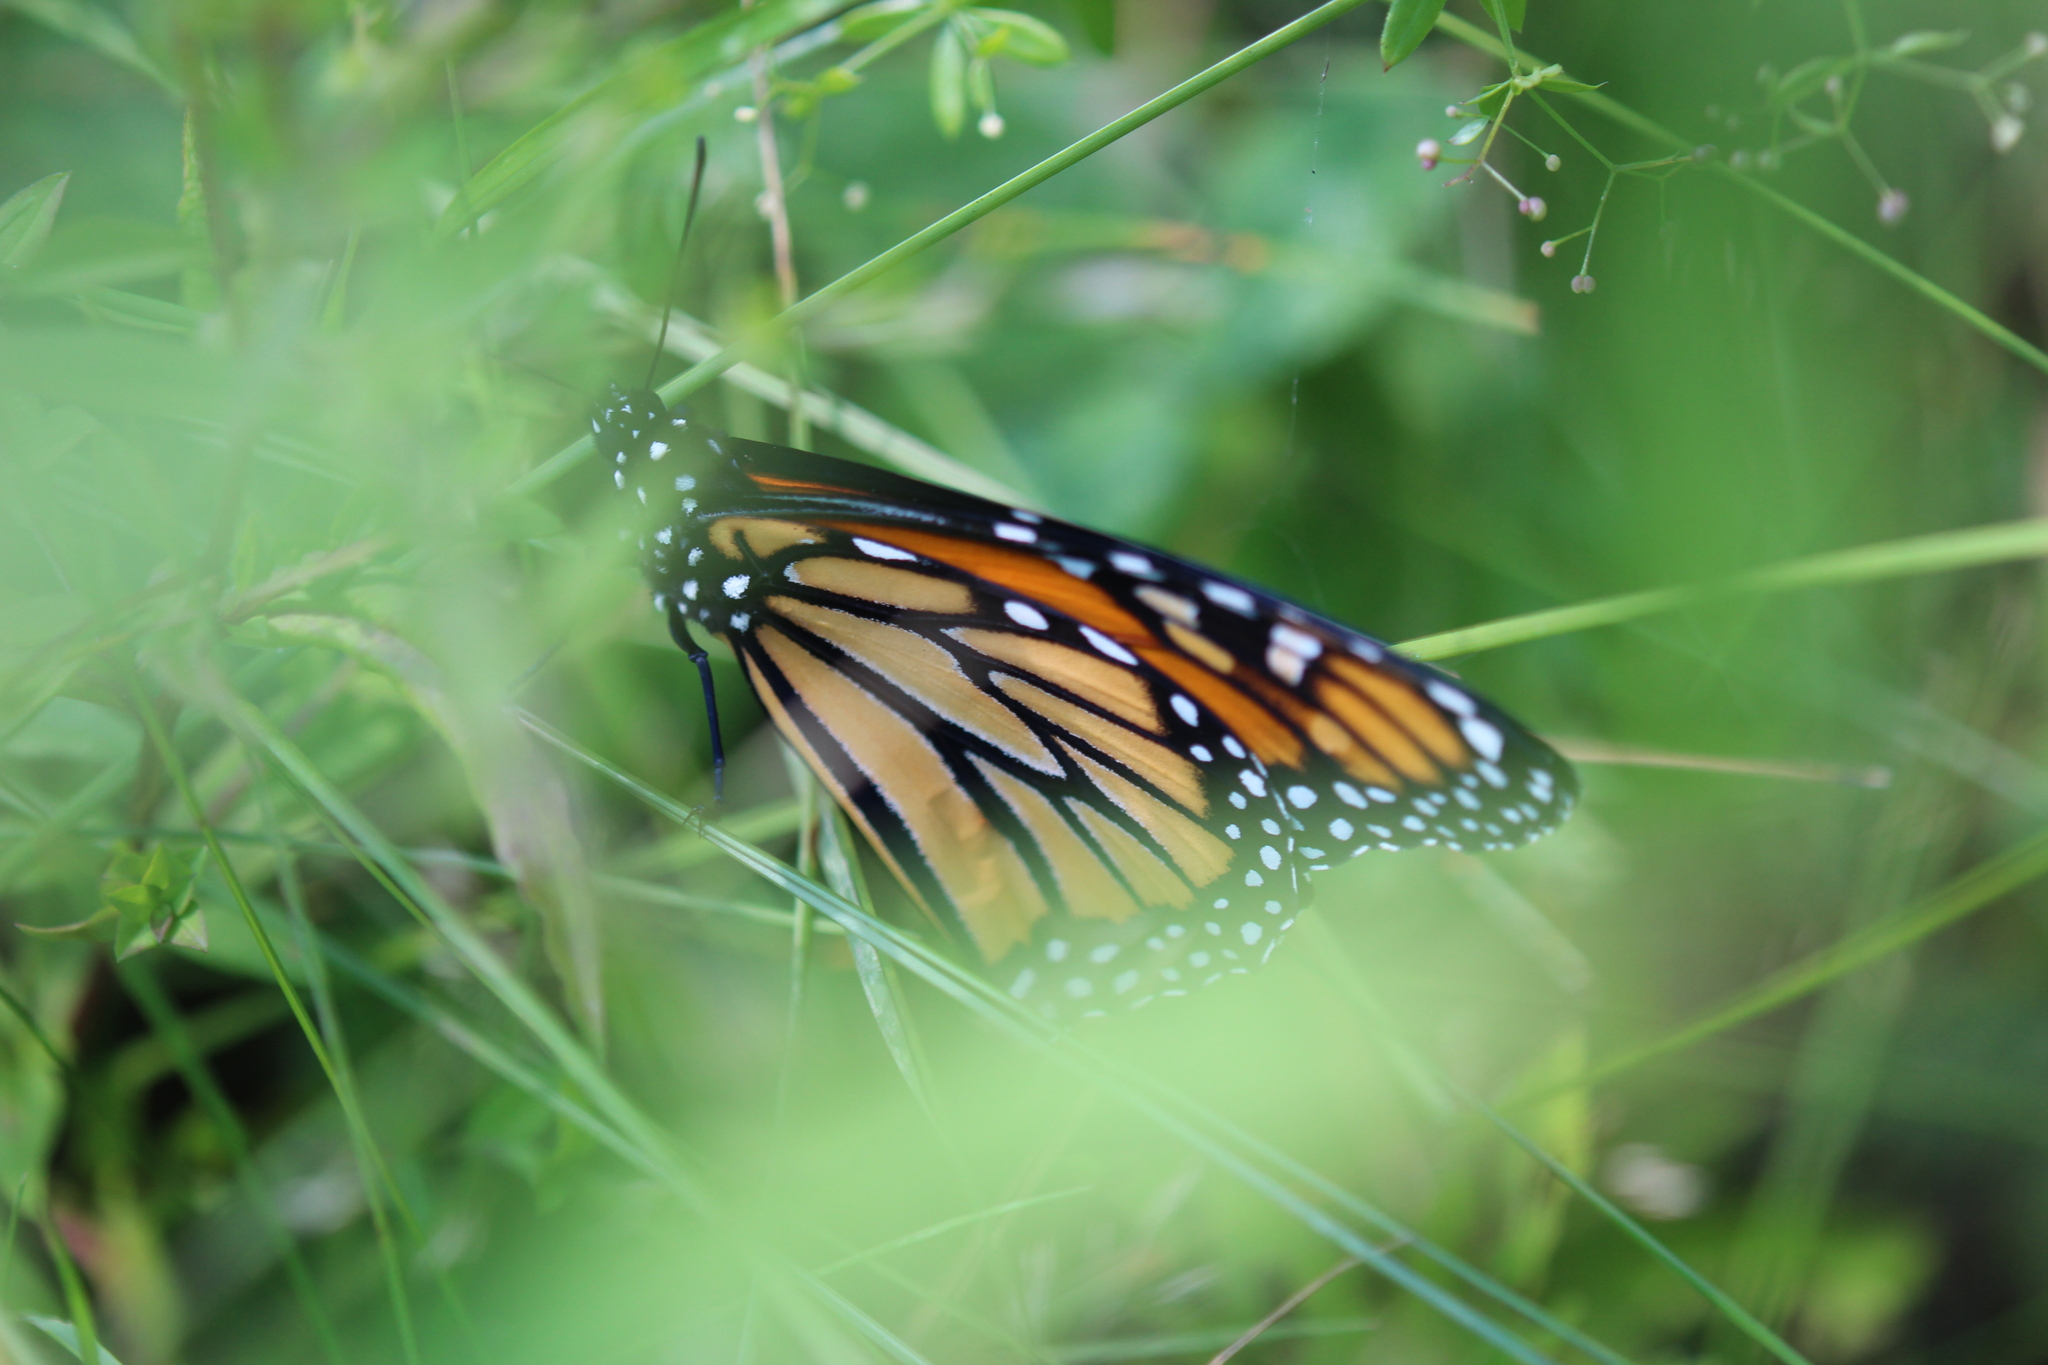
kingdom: Animalia
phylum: Arthropoda
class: Insecta
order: Lepidoptera
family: Nymphalidae
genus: Danaus
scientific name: Danaus plexippus
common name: Monarch
